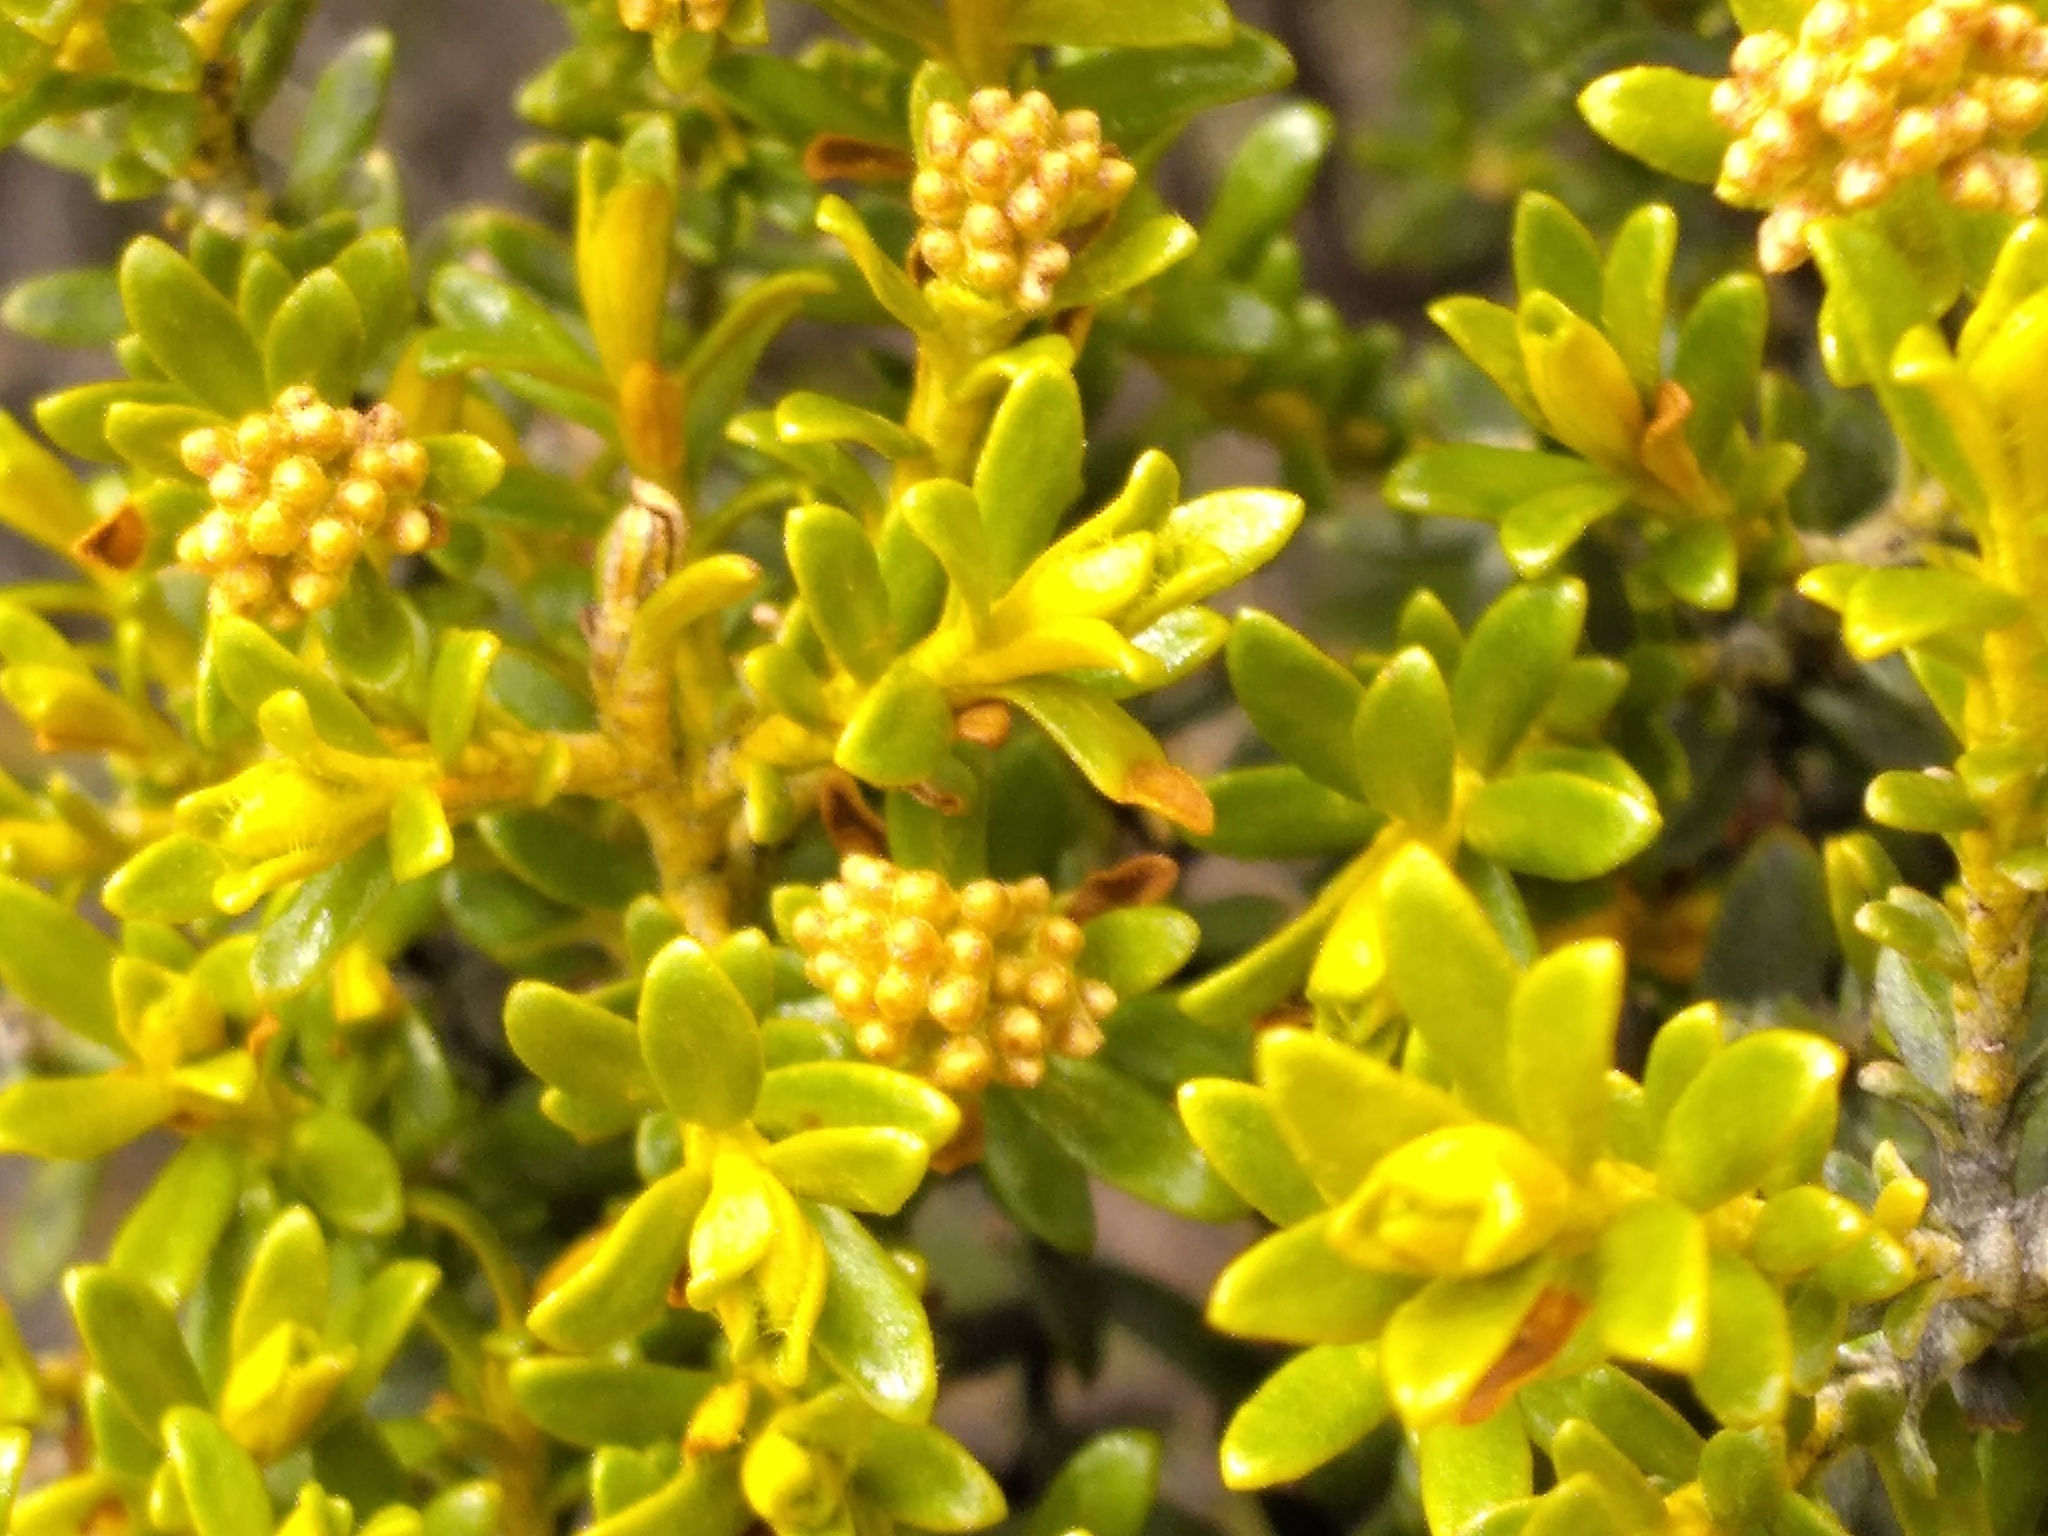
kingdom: Plantae
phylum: Tracheophyta
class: Magnoliopsida
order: Asterales
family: Asteraceae
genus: Ozothamnus
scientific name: Ozothamnus leptophyllus
